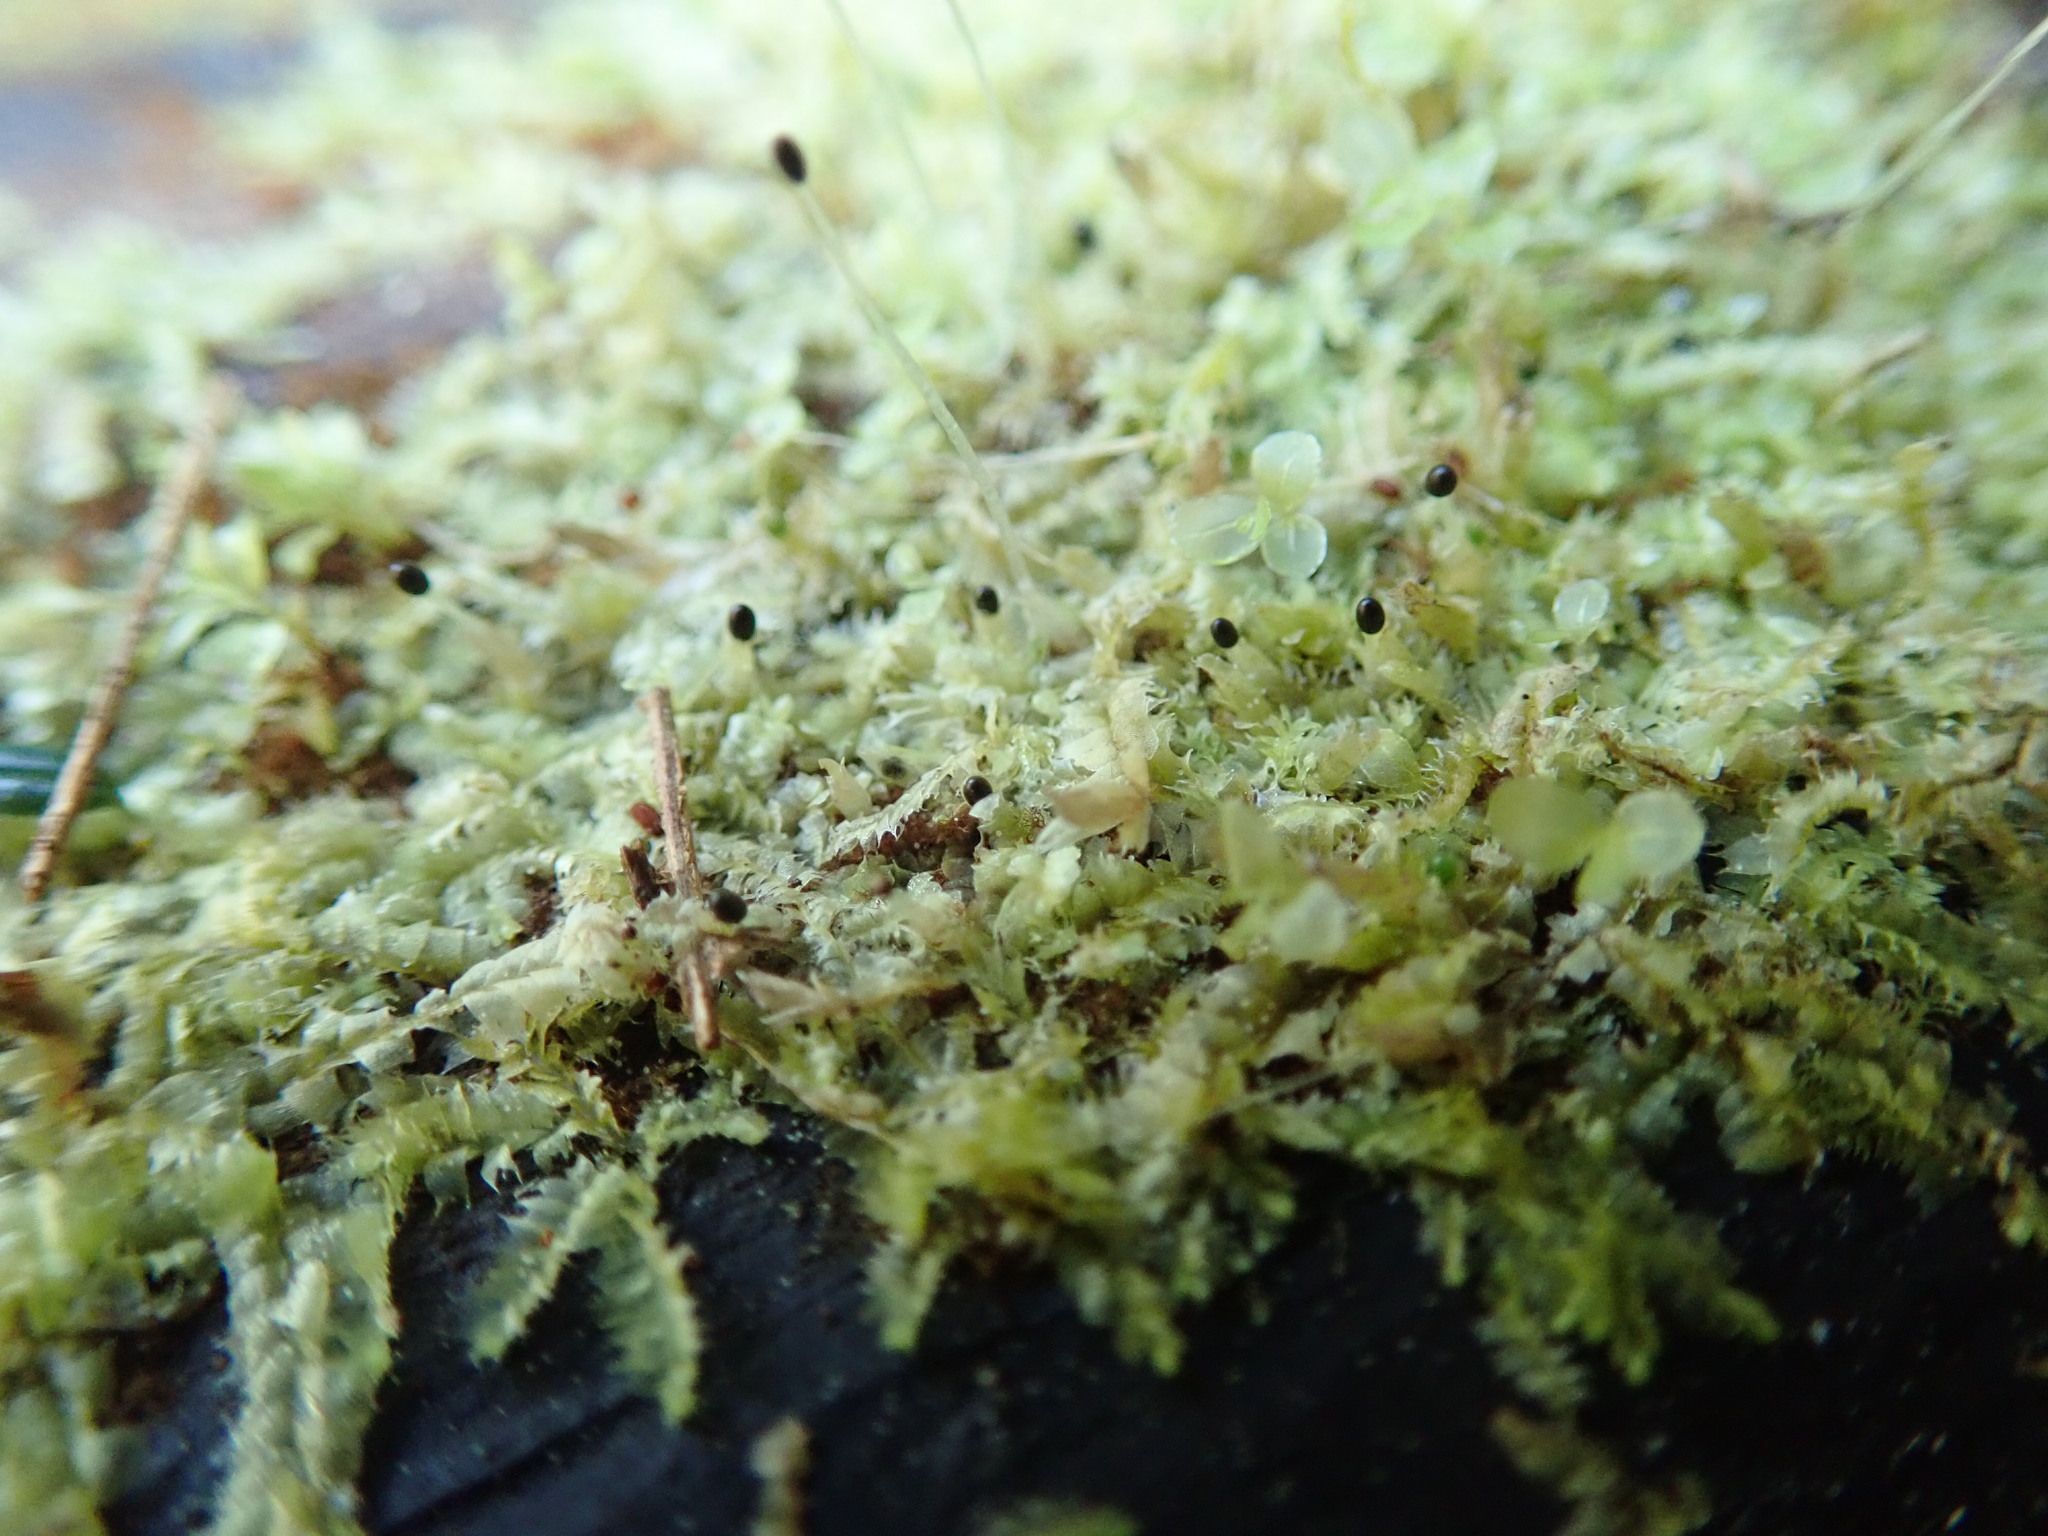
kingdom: Plantae
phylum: Marchantiophyta
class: Jungermanniopsida
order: Jungermanniales
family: Lophocoleaceae
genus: Lophocolea
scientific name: Lophocolea bidentata
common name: Bifid crestwort
